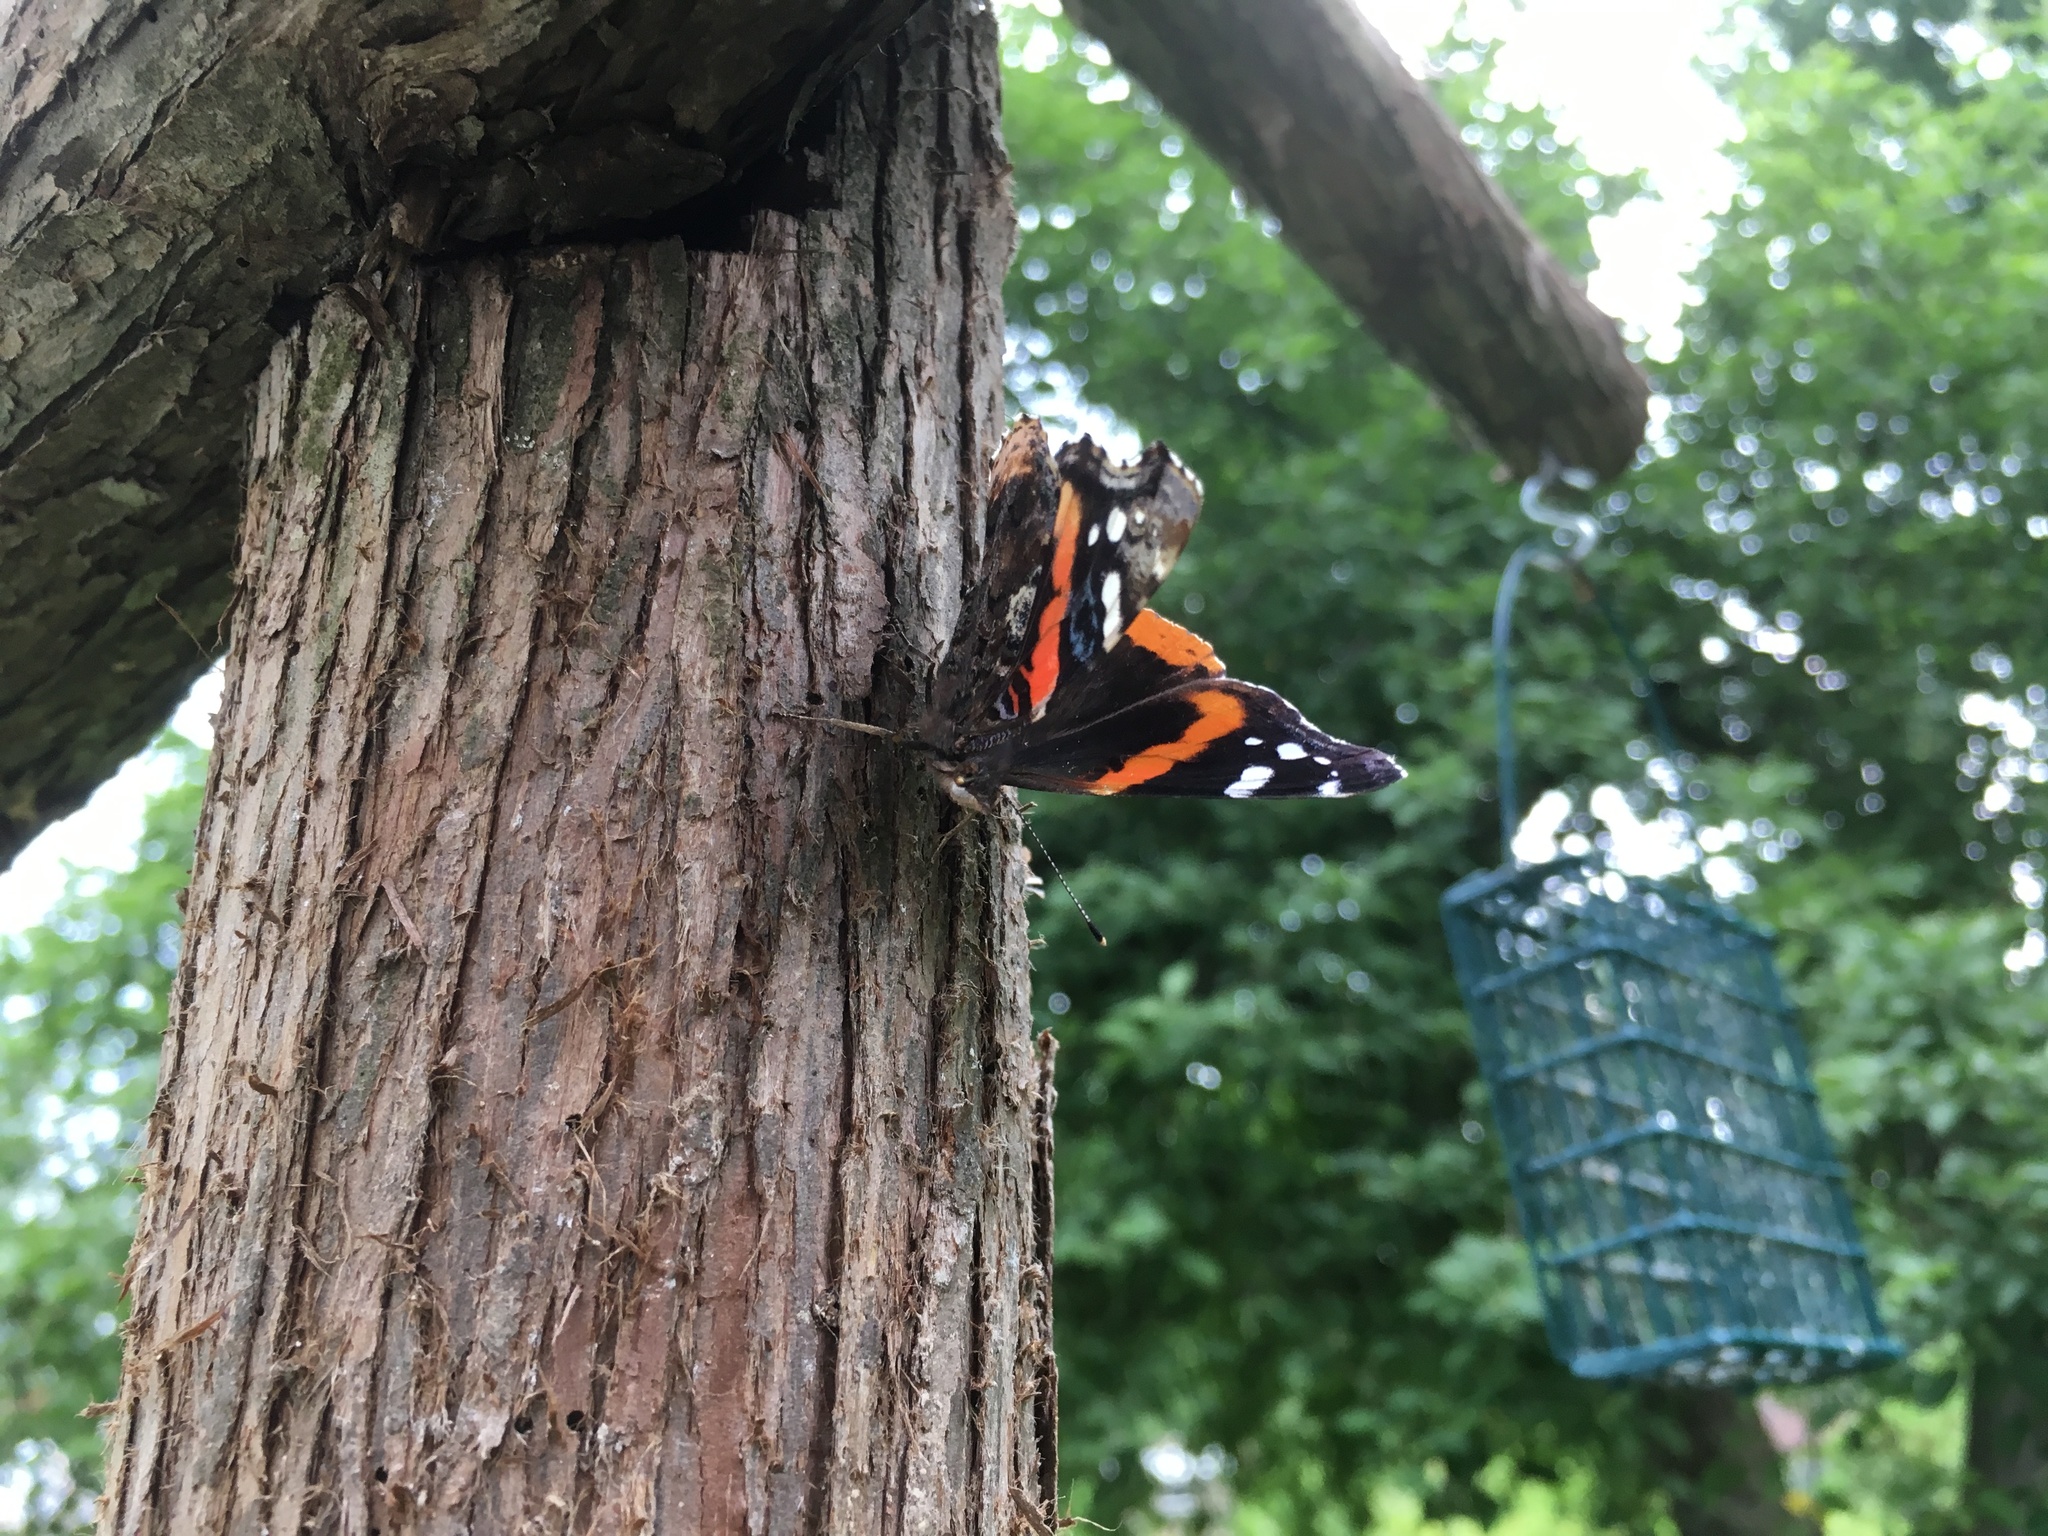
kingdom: Animalia
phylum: Arthropoda
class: Insecta
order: Lepidoptera
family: Nymphalidae
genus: Vanessa
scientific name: Vanessa atalanta
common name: Red admiral
